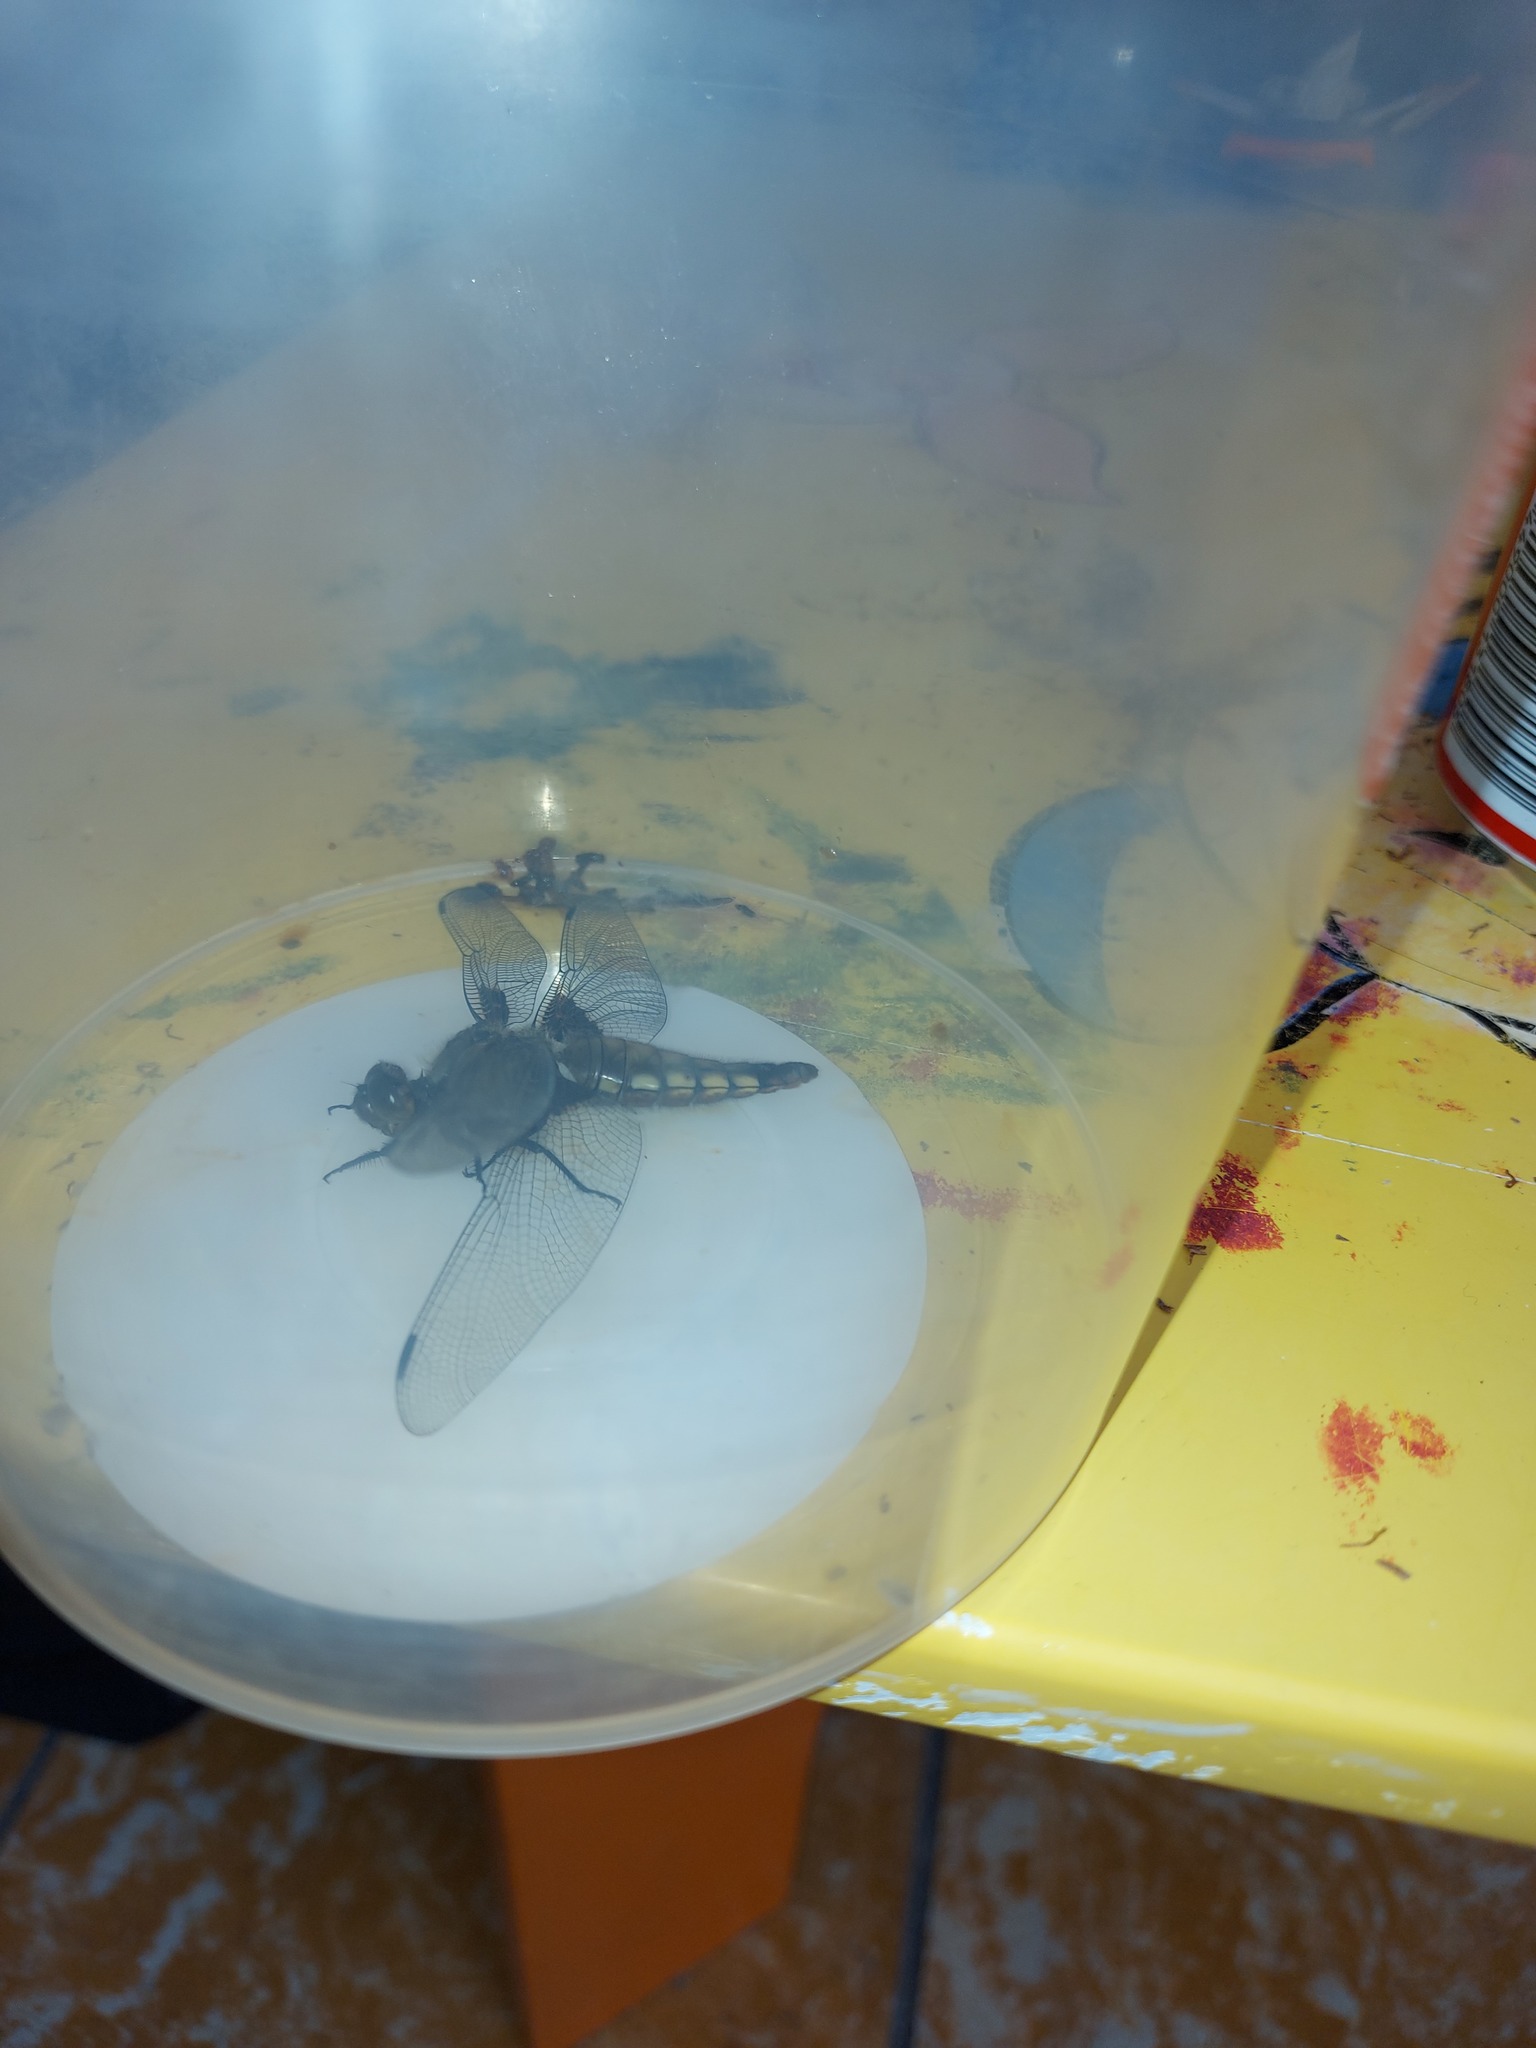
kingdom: Animalia
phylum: Arthropoda
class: Insecta
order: Odonata
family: Libellulidae
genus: Libellula
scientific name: Libellula depressa
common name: Broad-bodied chaser
